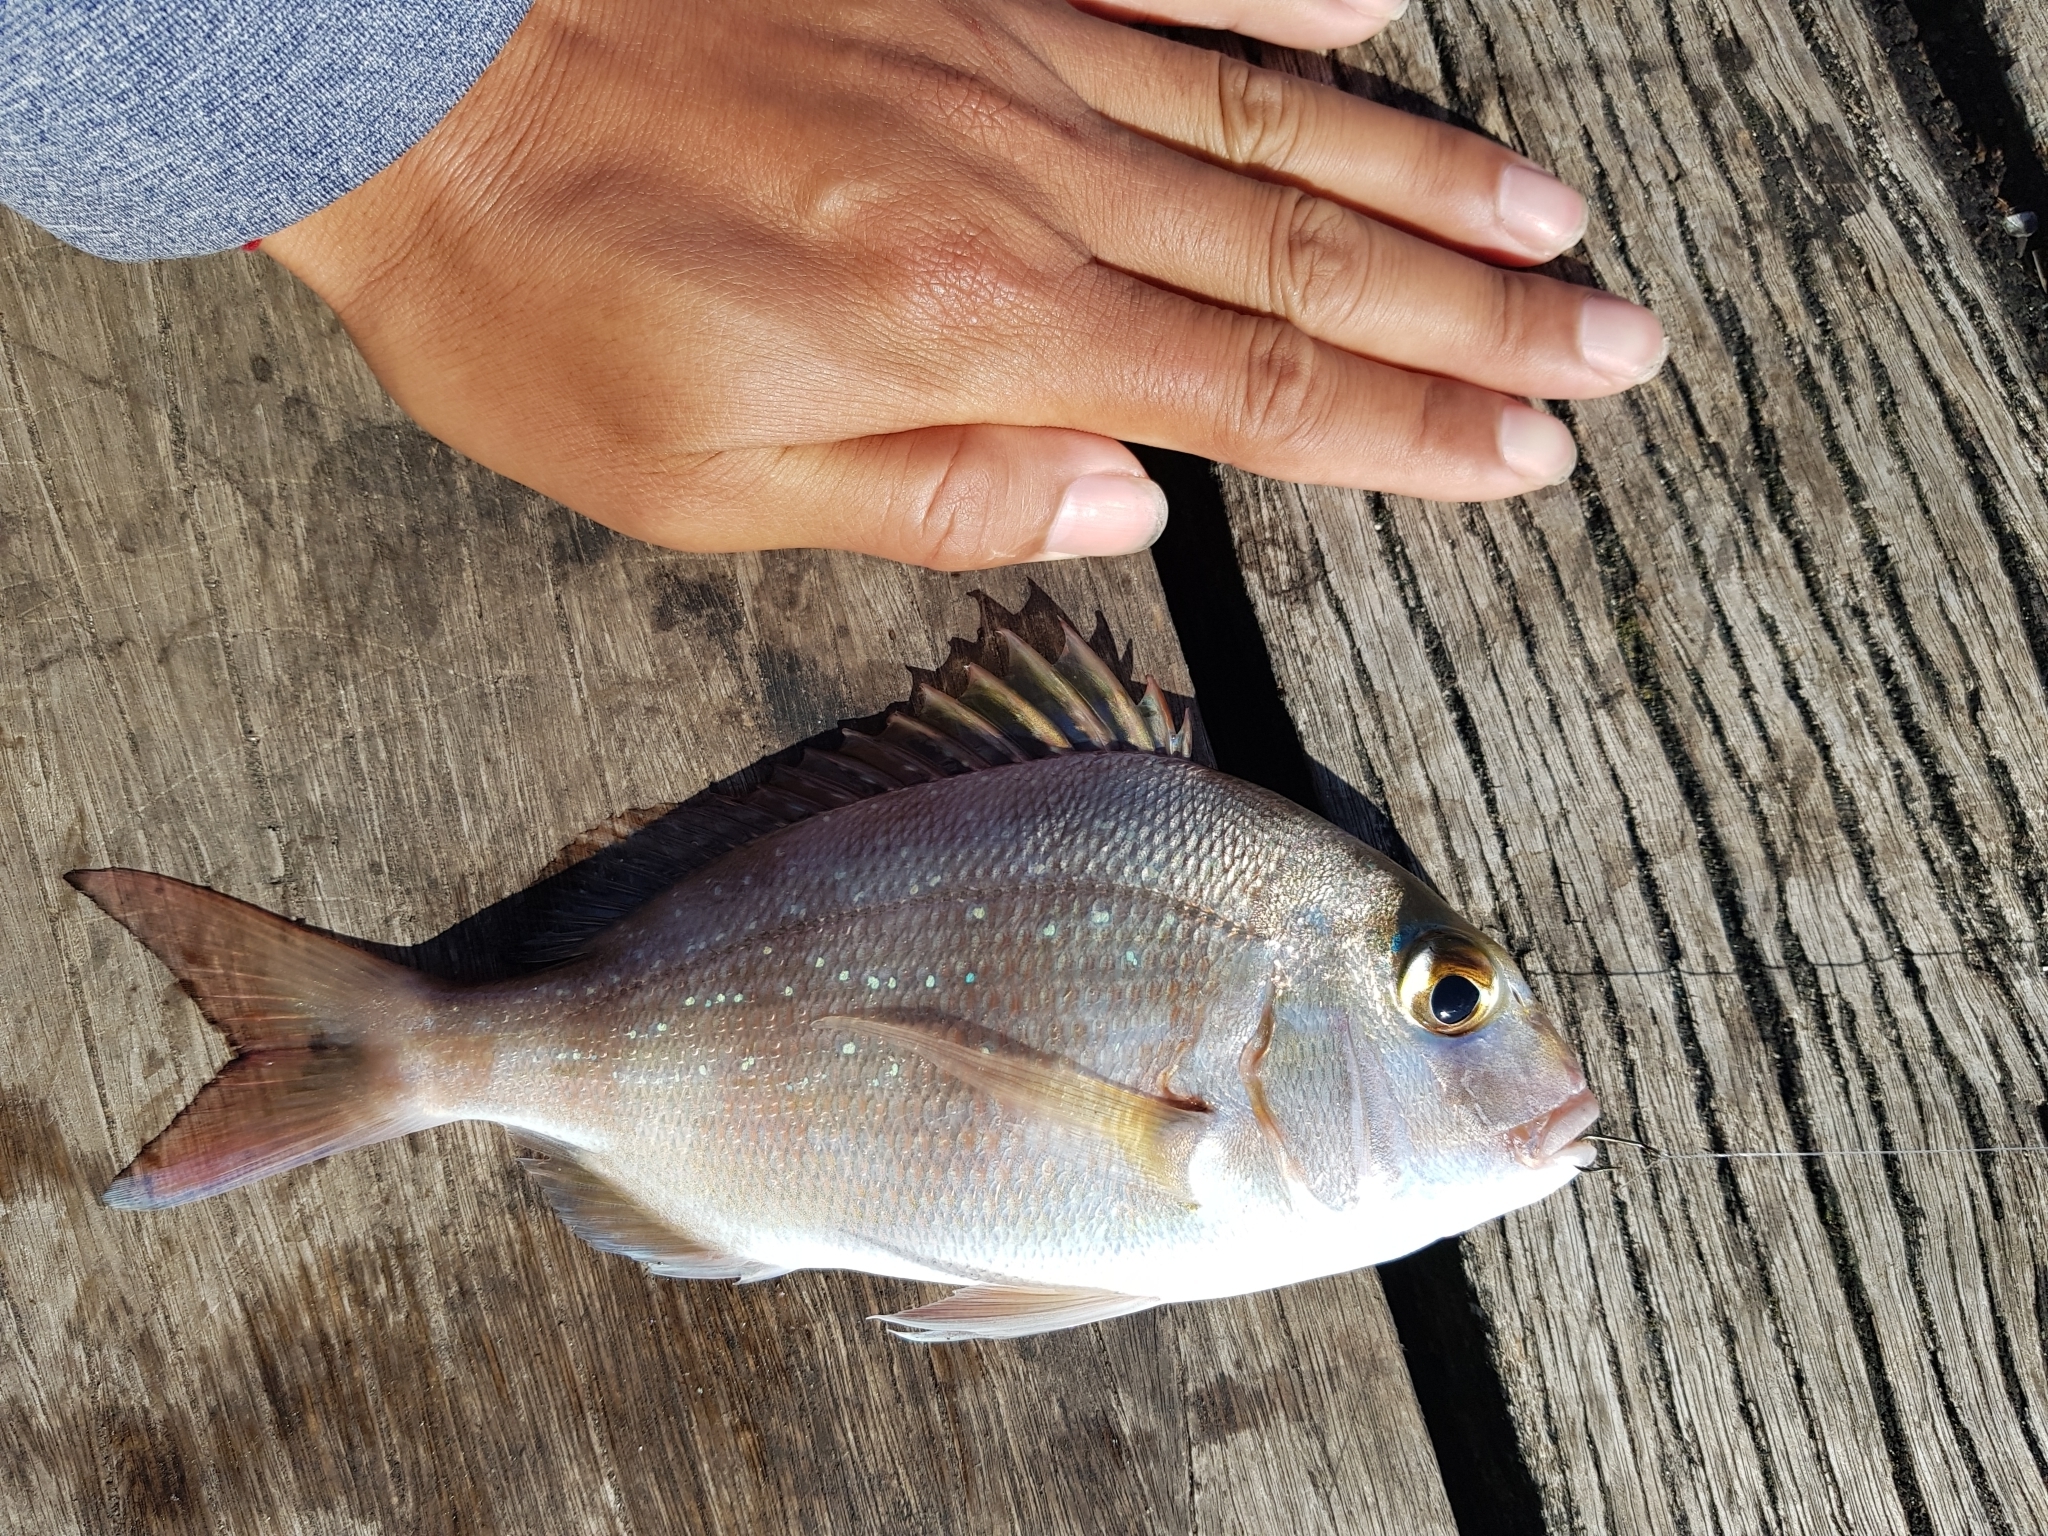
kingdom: Animalia
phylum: Chordata
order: Perciformes
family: Sparidae
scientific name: Sparidae
